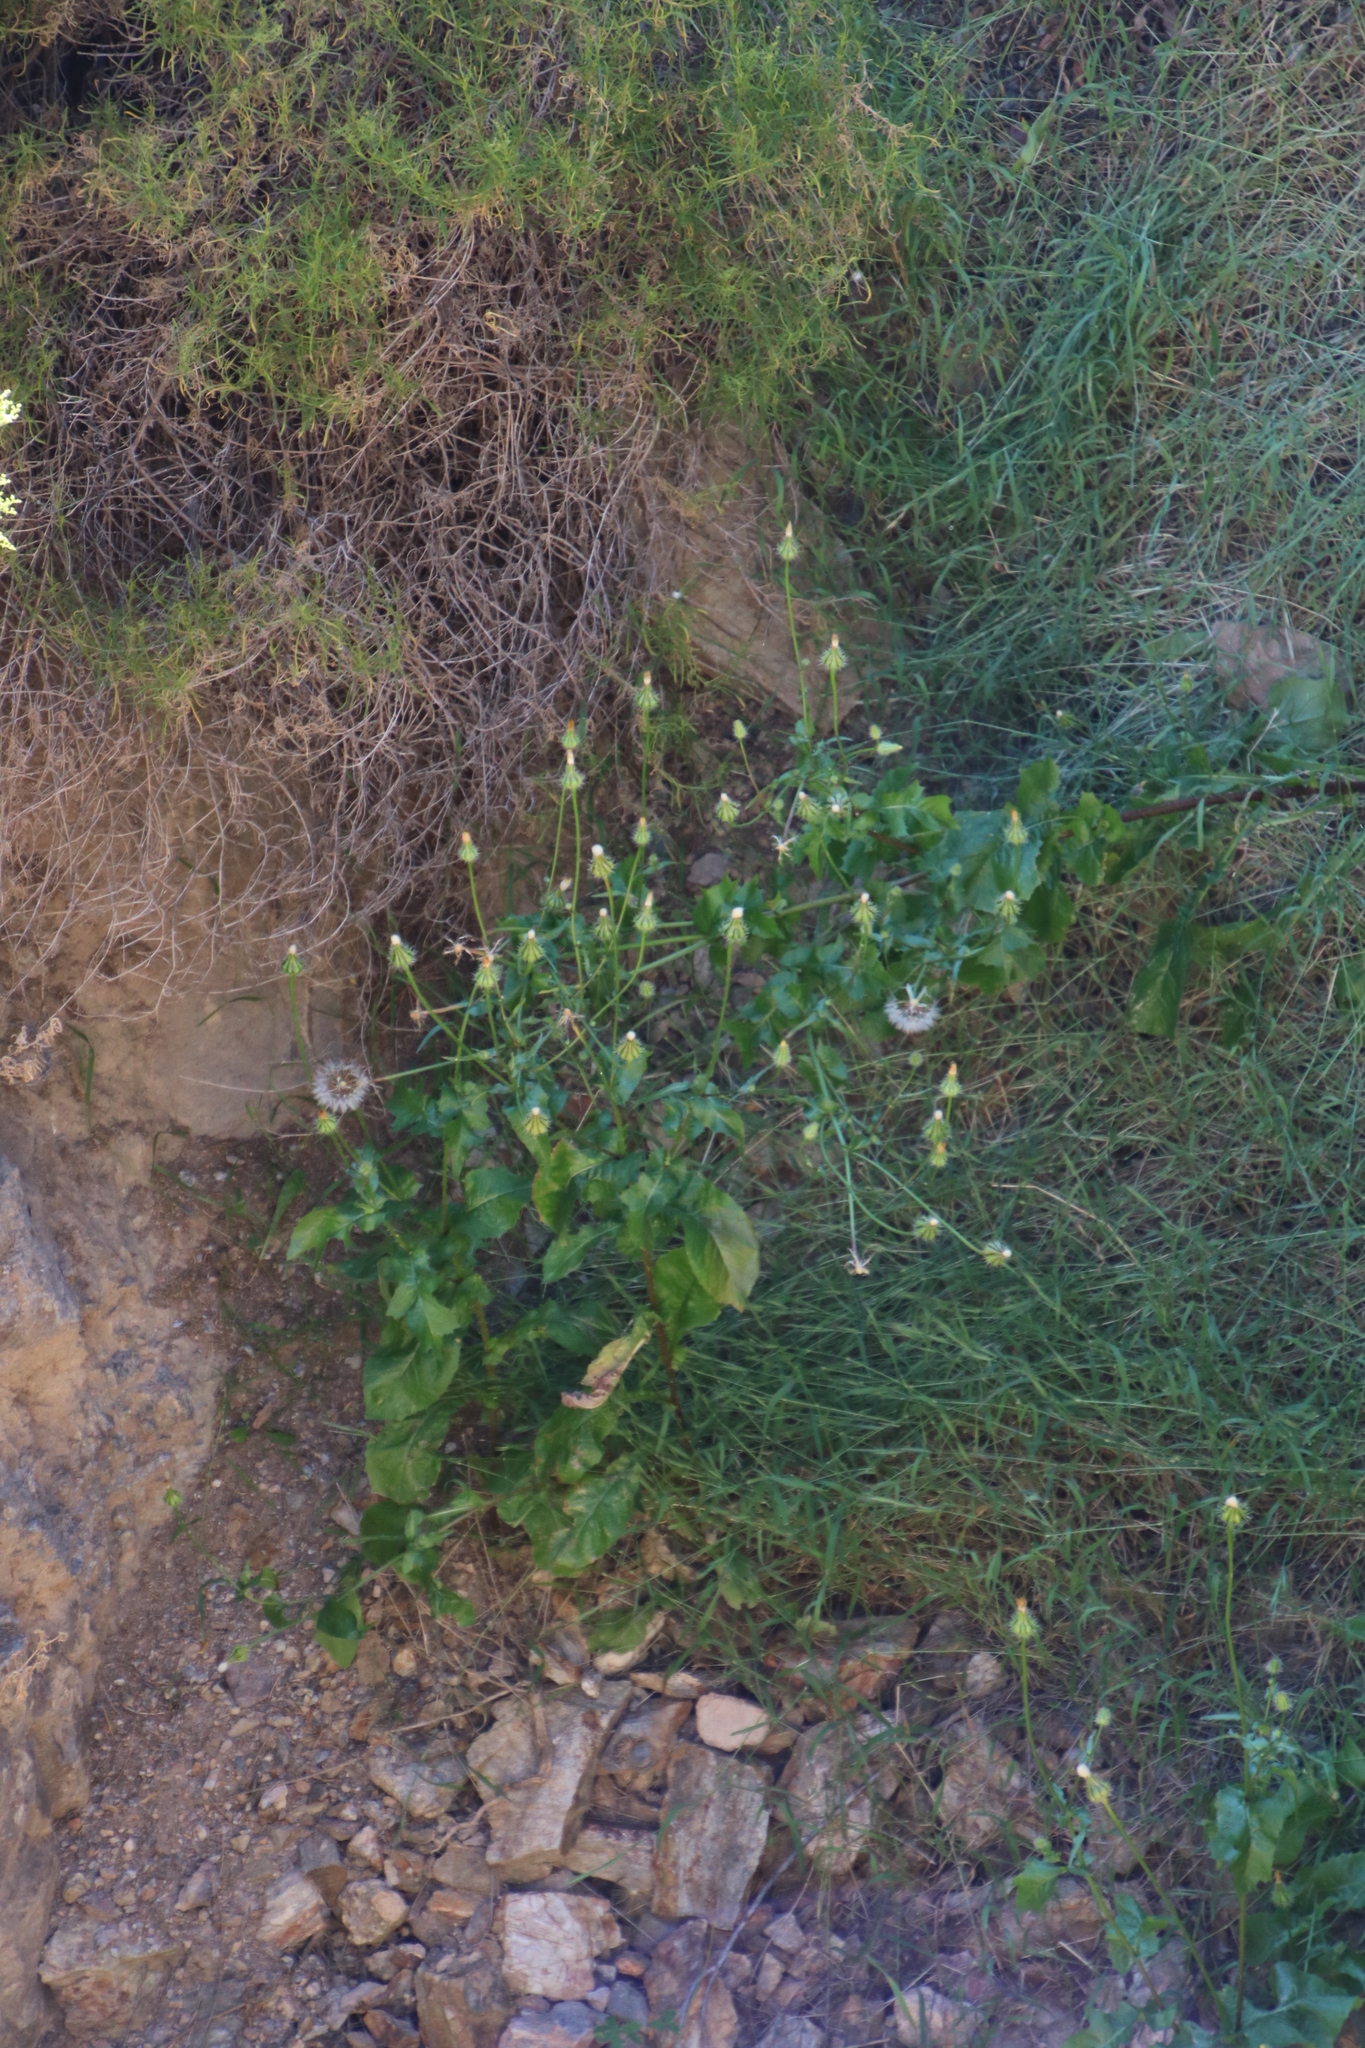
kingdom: Plantae
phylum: Tracheophyta
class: Magnoliopsida
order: Asterales
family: Asteraceae
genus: Urospermum
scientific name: Urospermum picroides
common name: False hawkbit
